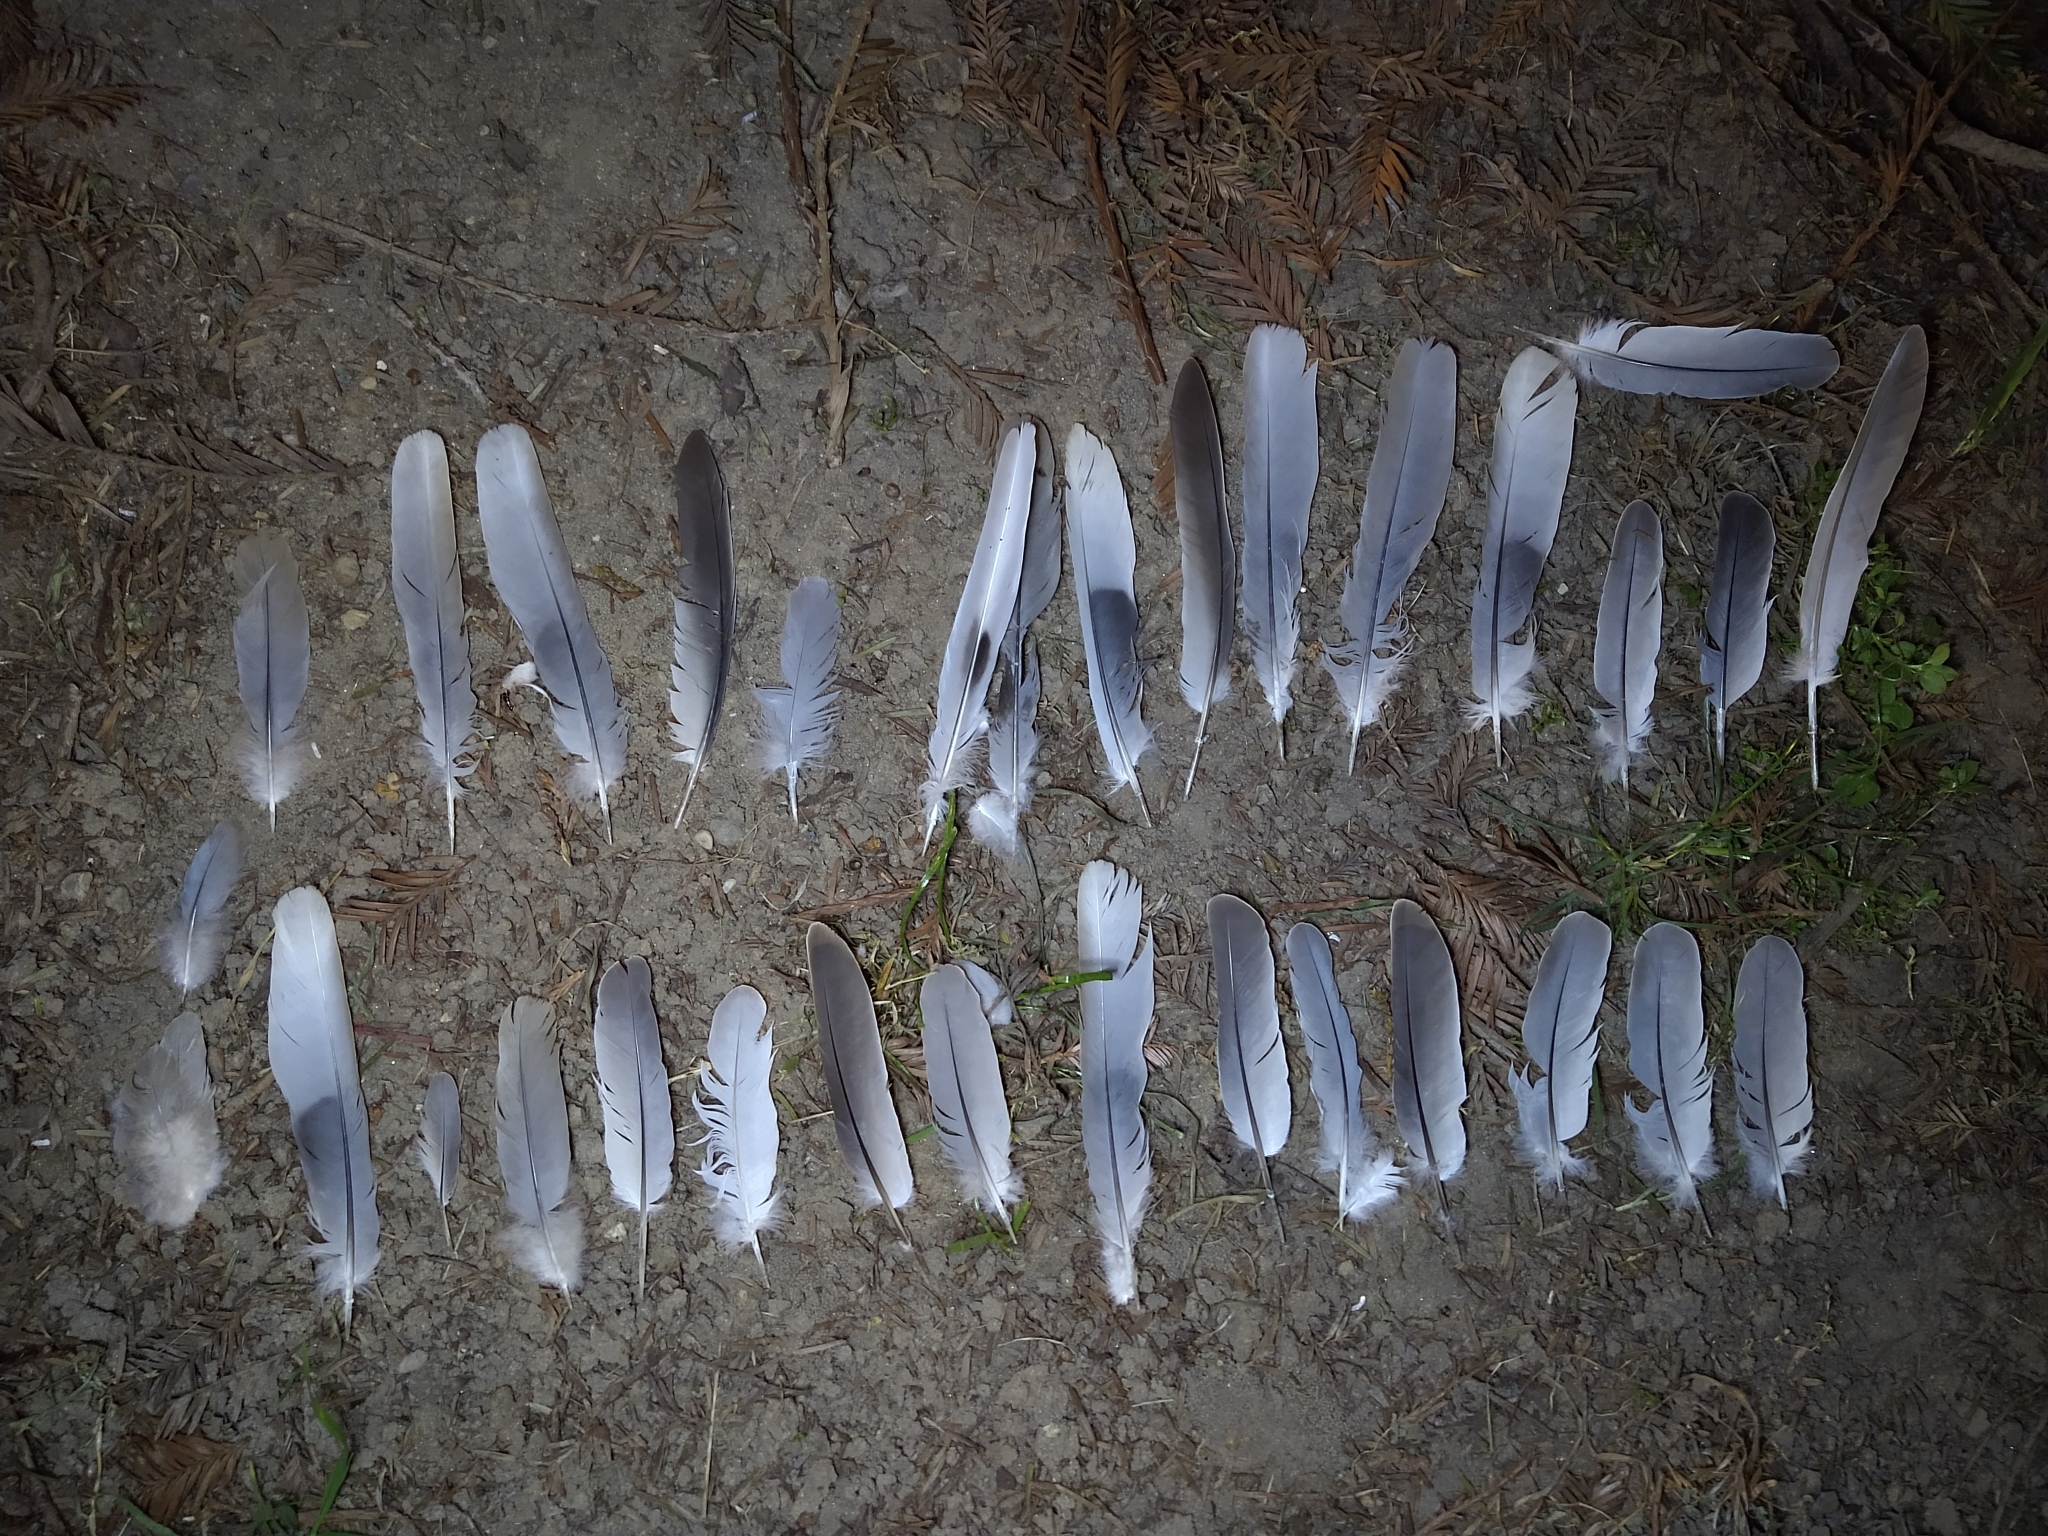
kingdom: Animalia
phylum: Chordata
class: Aves
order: Columbiformes
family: Columbidae
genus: Streptopelia
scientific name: Streptopelia decaocto
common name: Eurasian collared dove
